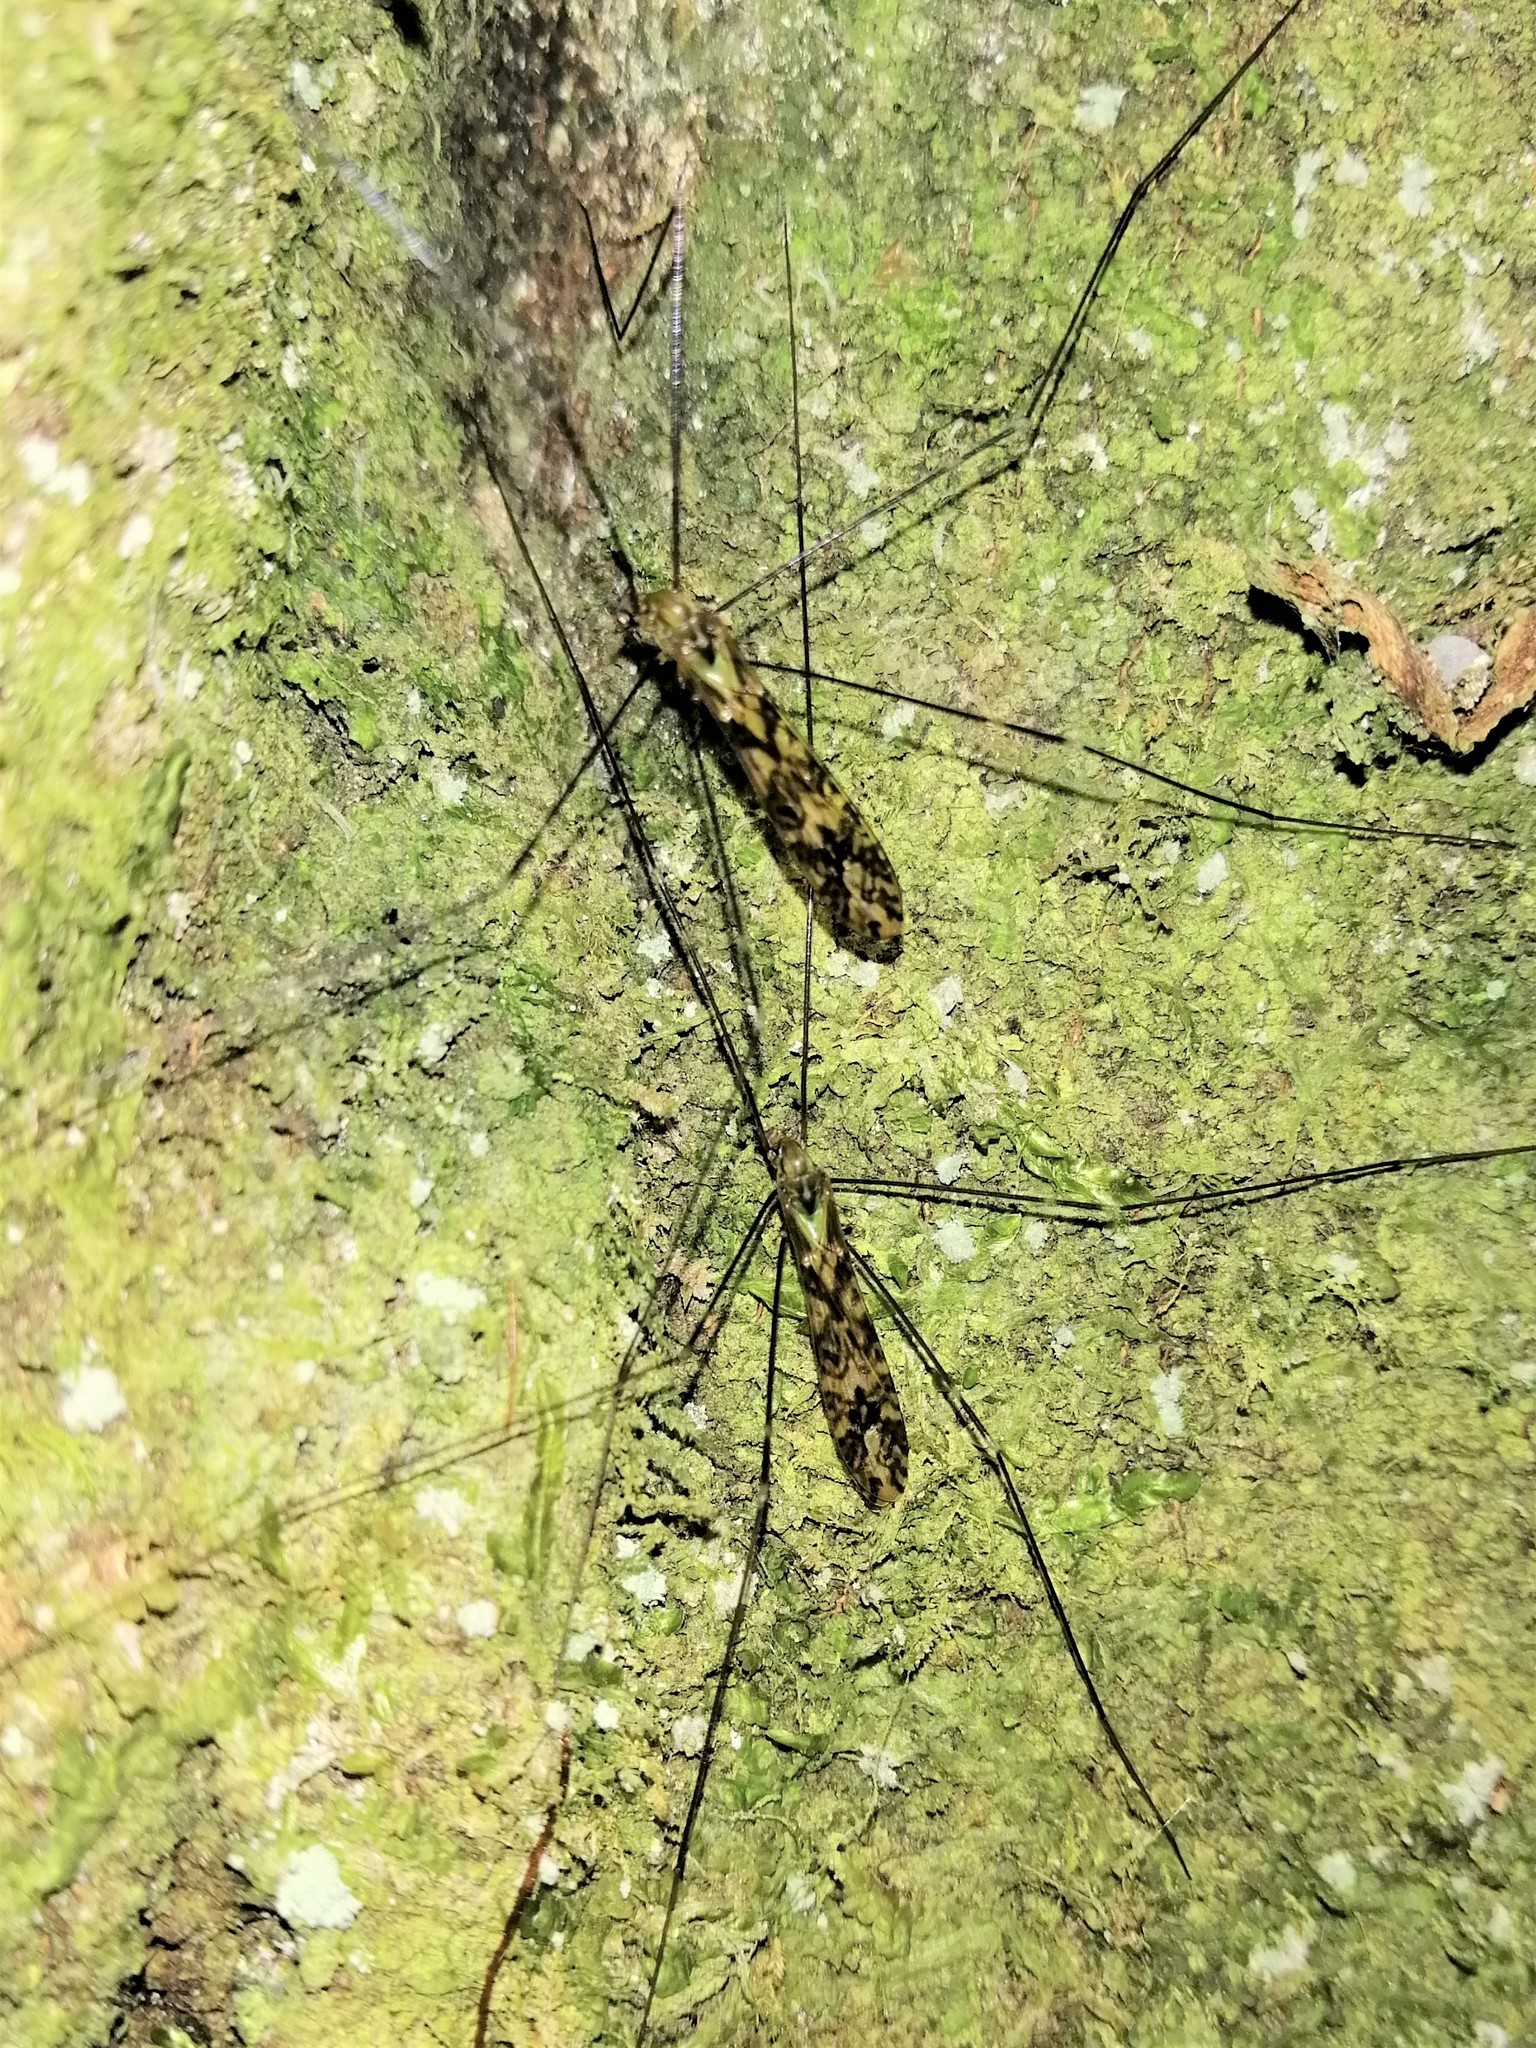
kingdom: Animalia
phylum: Arthropoda
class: Insecta
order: Diptera
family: Limoniidae
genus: Discobola
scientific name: Discobola tessellata
